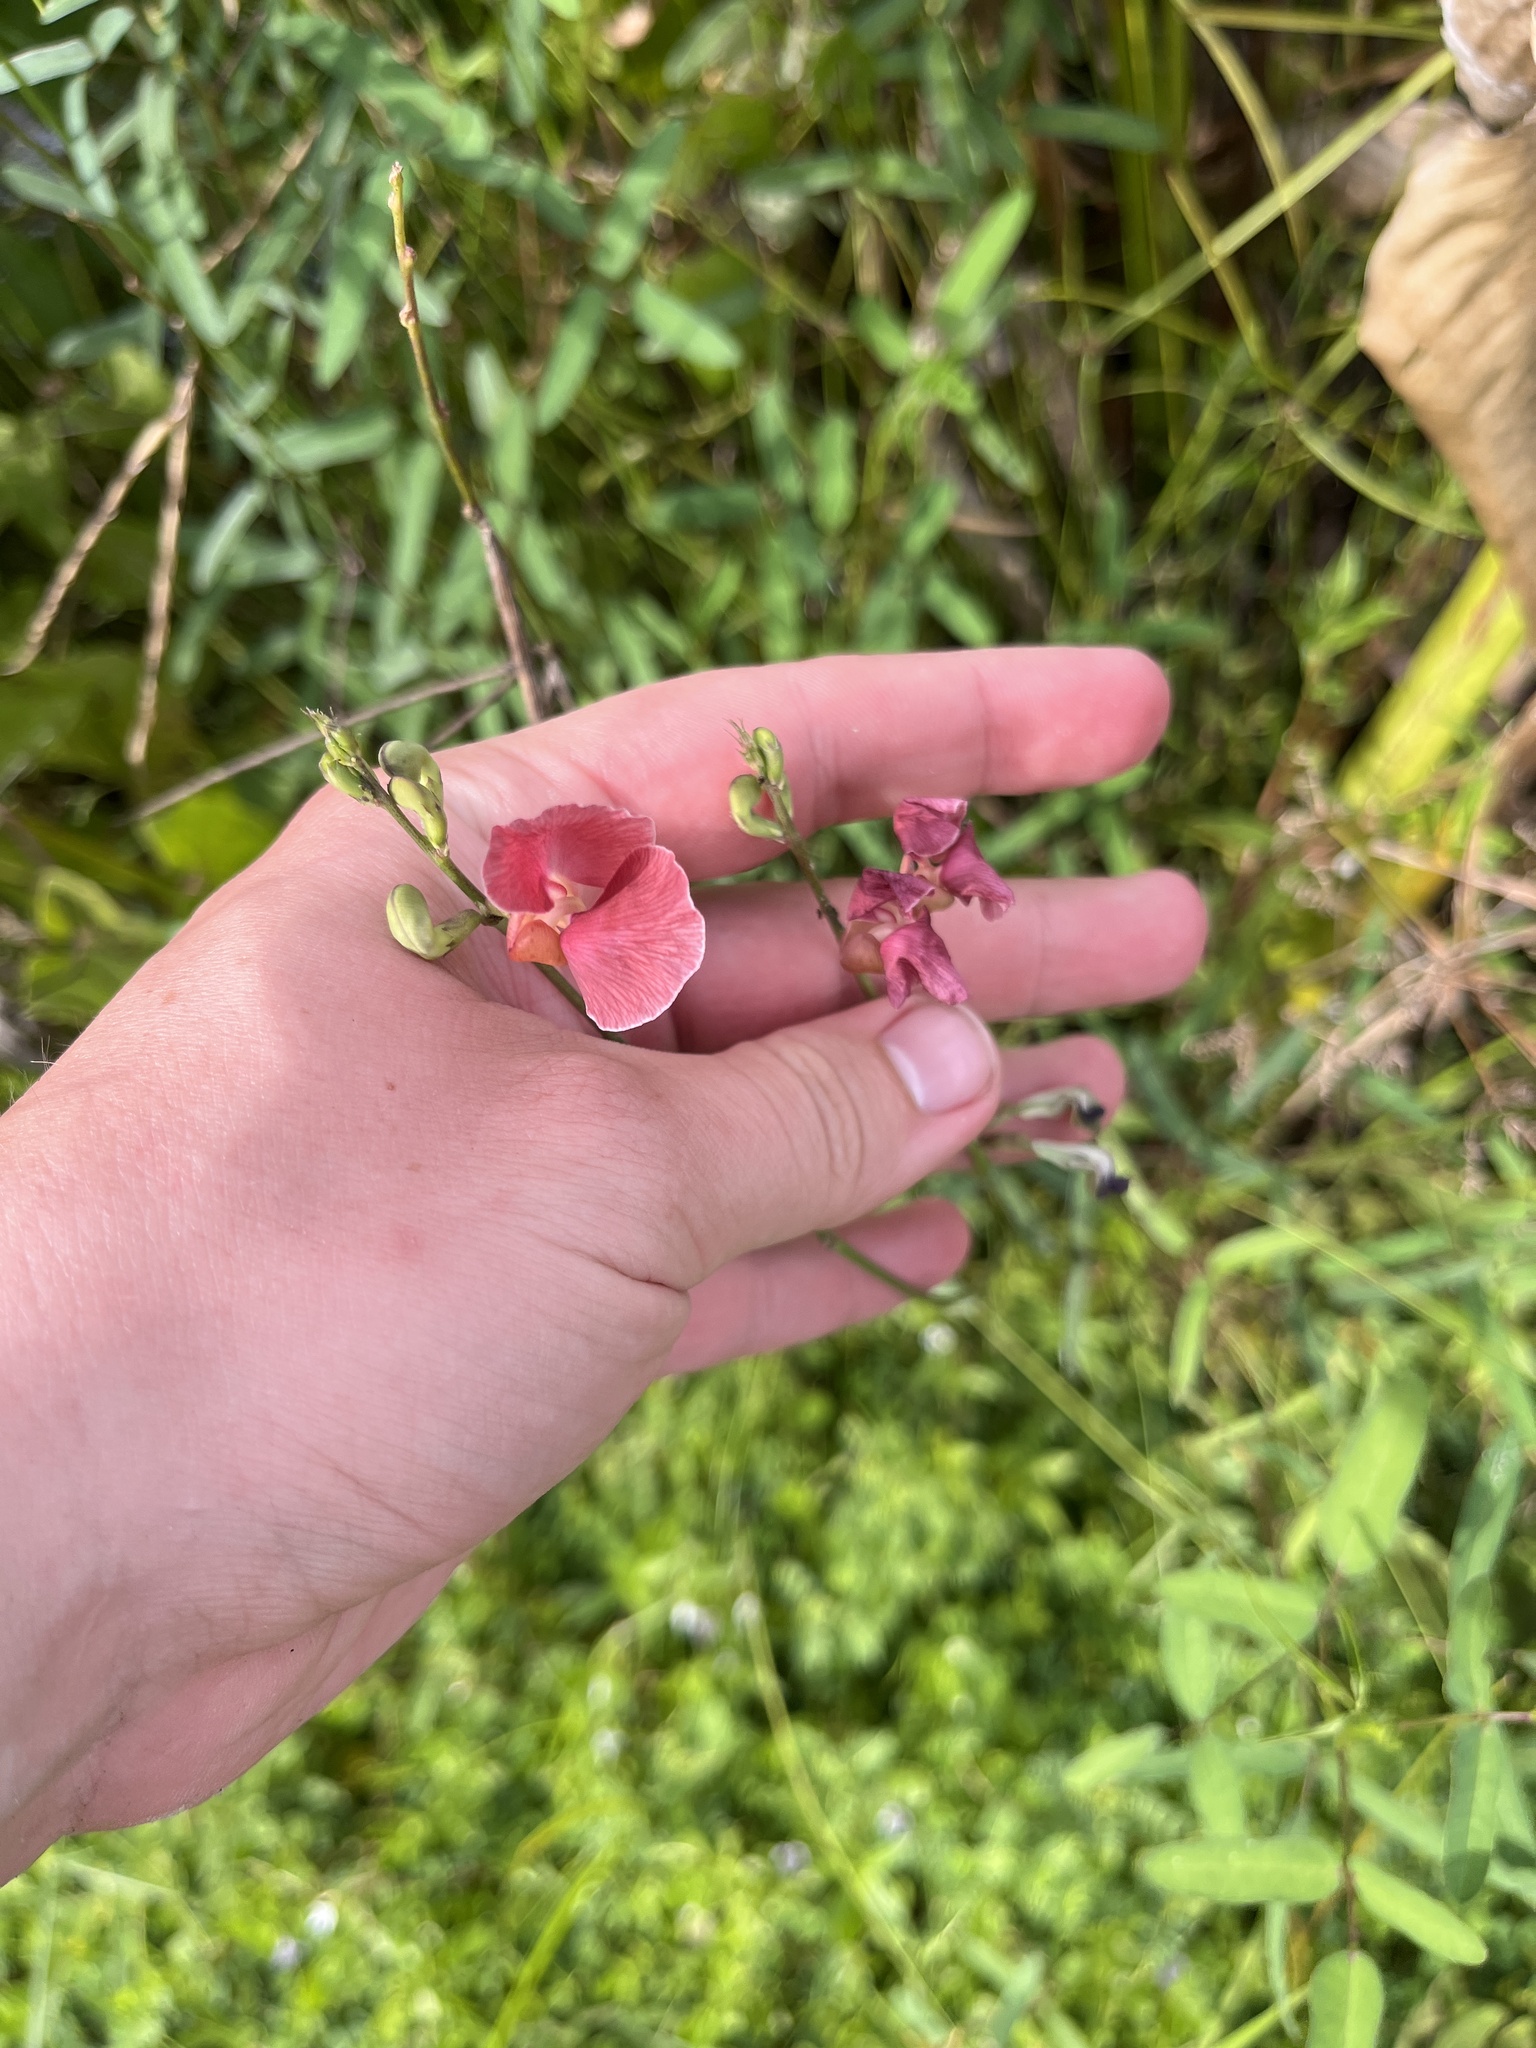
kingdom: Plantae
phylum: Tracheophyta
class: Magnoliopsida
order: Fabales
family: Fabaceae
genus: Macroptilium
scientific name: Macroptilium lathyroides
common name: Wild bushbean
